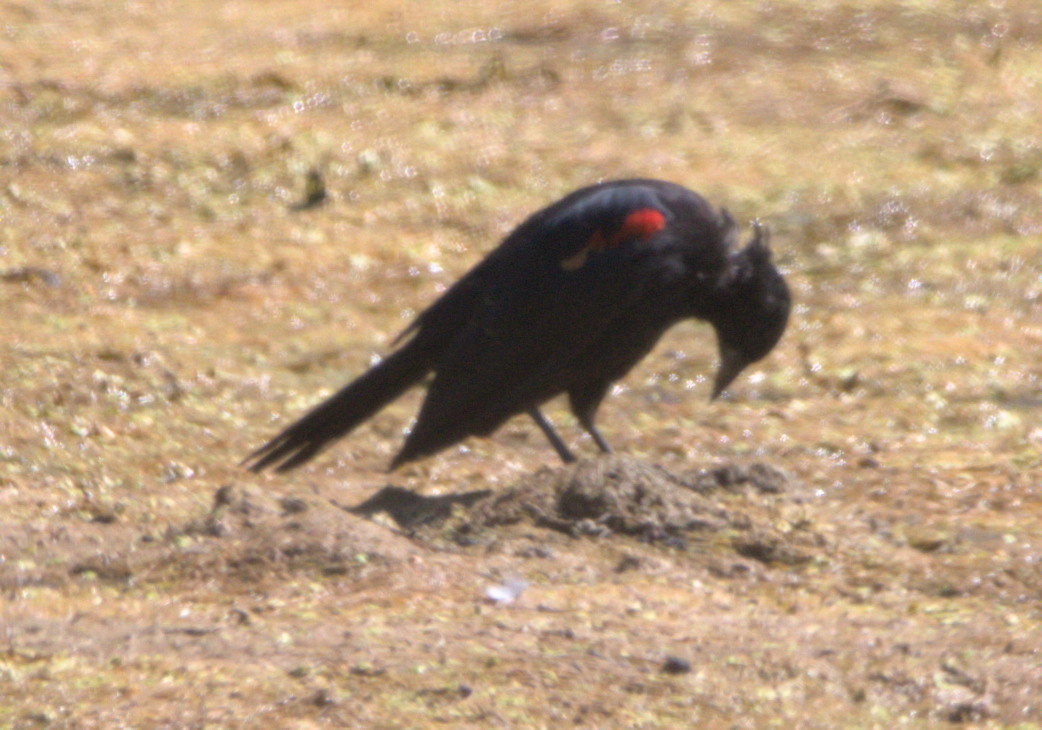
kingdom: Animalia
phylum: Chordata
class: Aves
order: Passeriformes
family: Icteridae
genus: Agelaius
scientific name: Agelaius phoeniceus
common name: Red-winged blackbird
